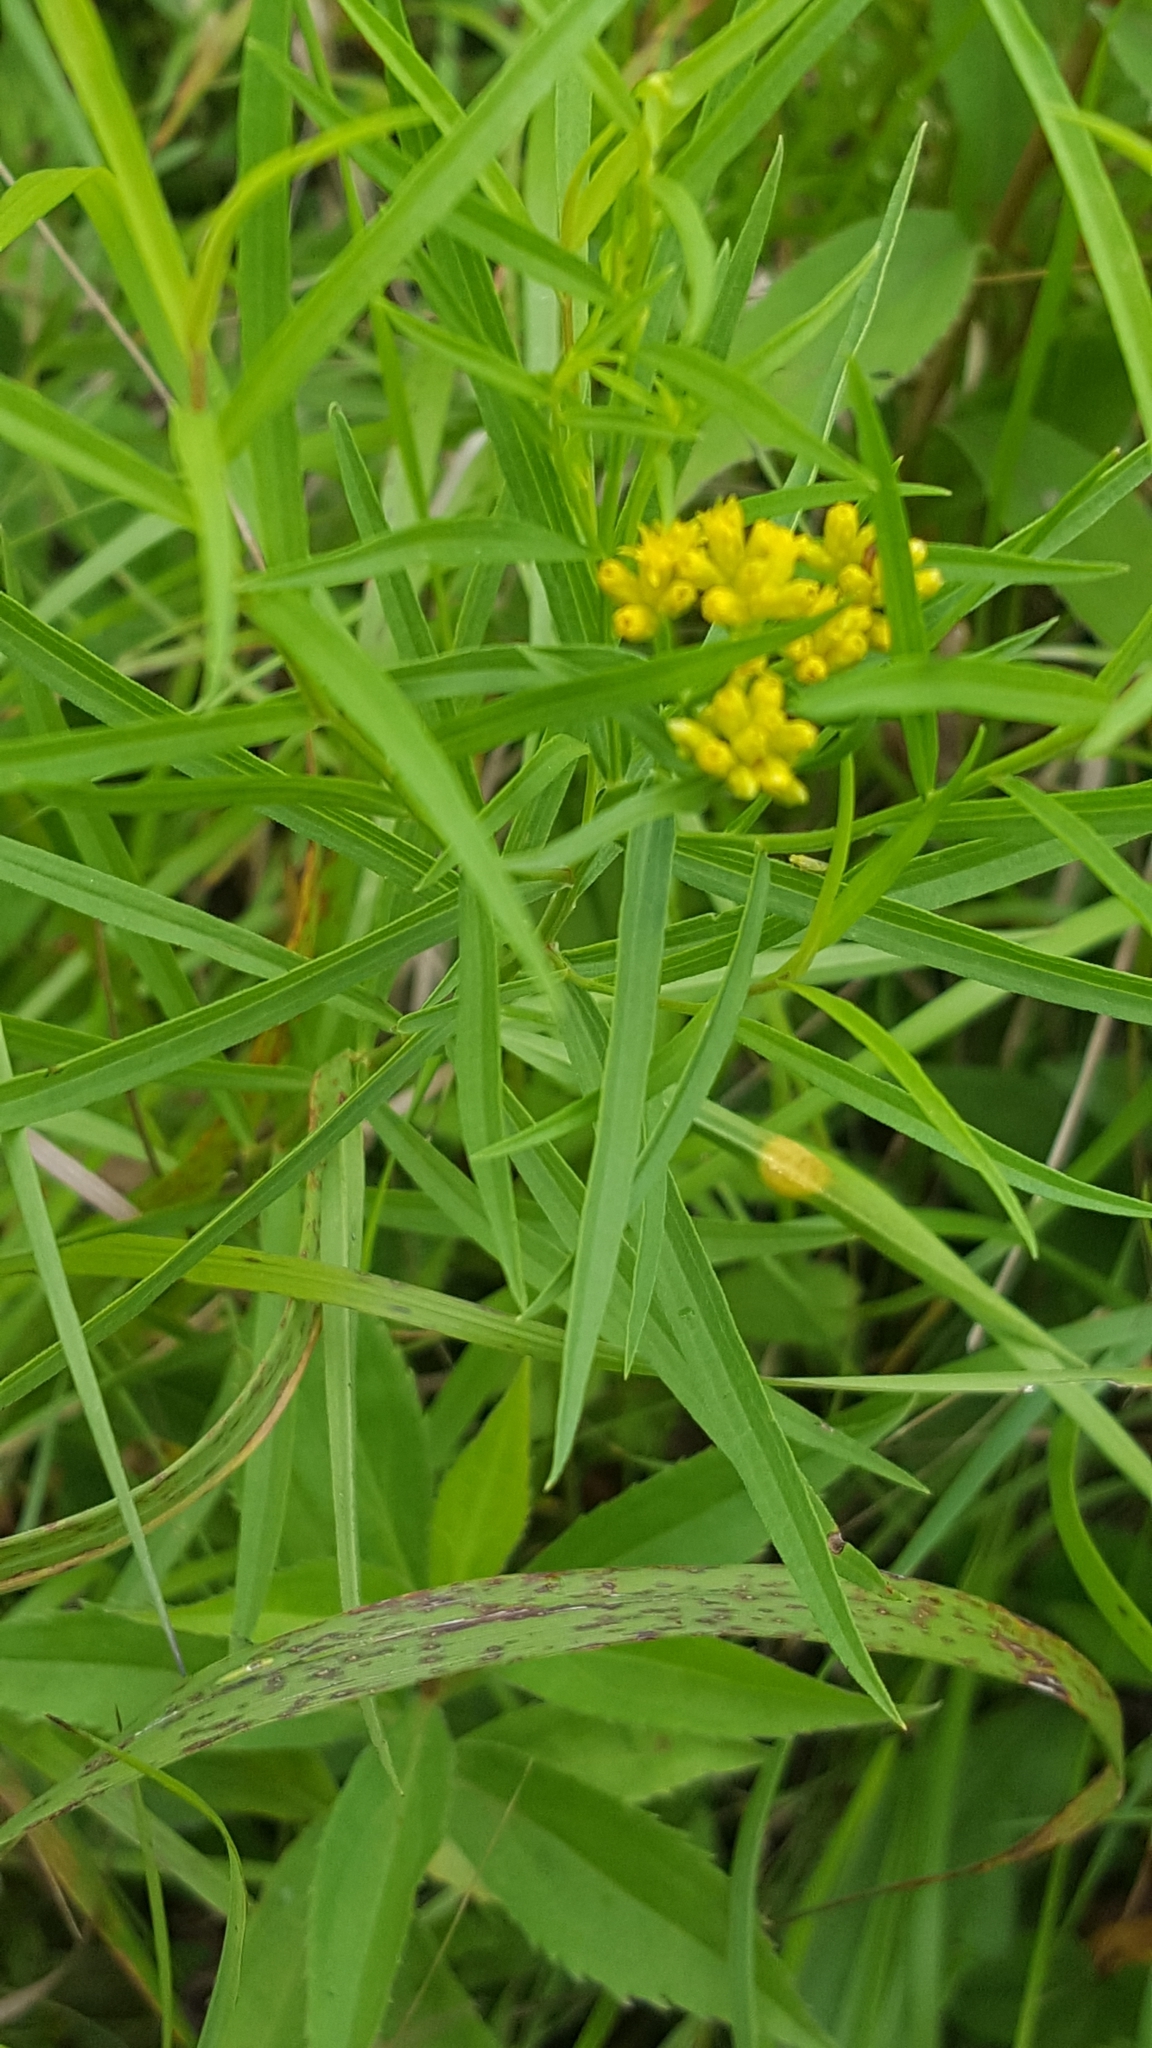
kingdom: Plantae
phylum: Tracheophyta
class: Magnoliopsida
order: Asterales
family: Asteraceae
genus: Euthamia
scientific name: Euthamia graminifolia
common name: Common goldentop
